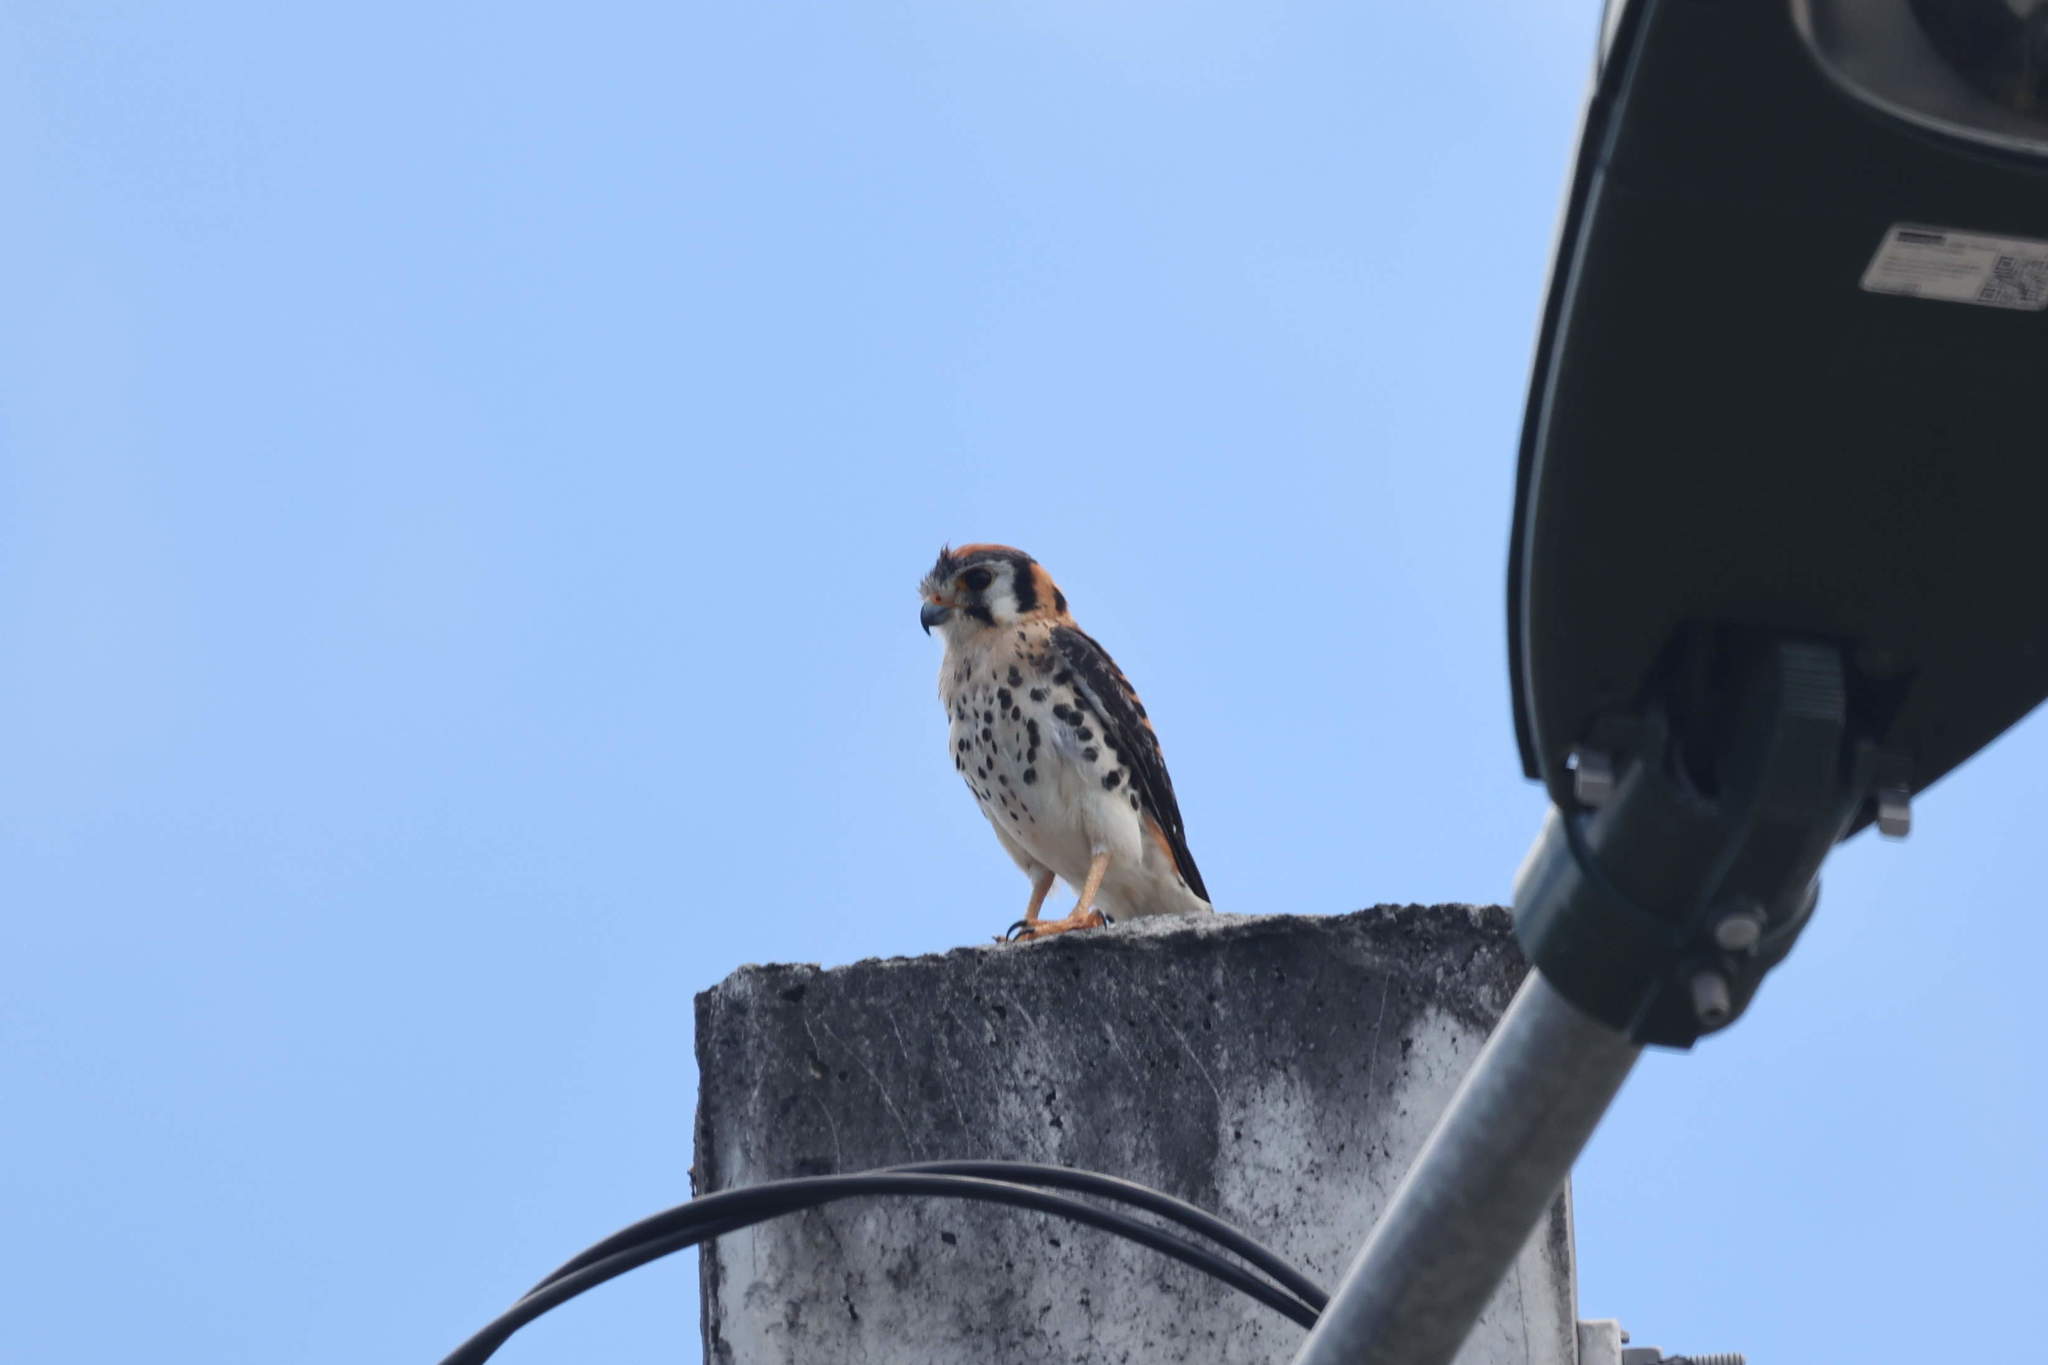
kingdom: Animalia
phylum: Chordata
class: Aves
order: Falconiformes
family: Falconidae
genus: Falco
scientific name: Falco sparverius
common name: American kestrel
